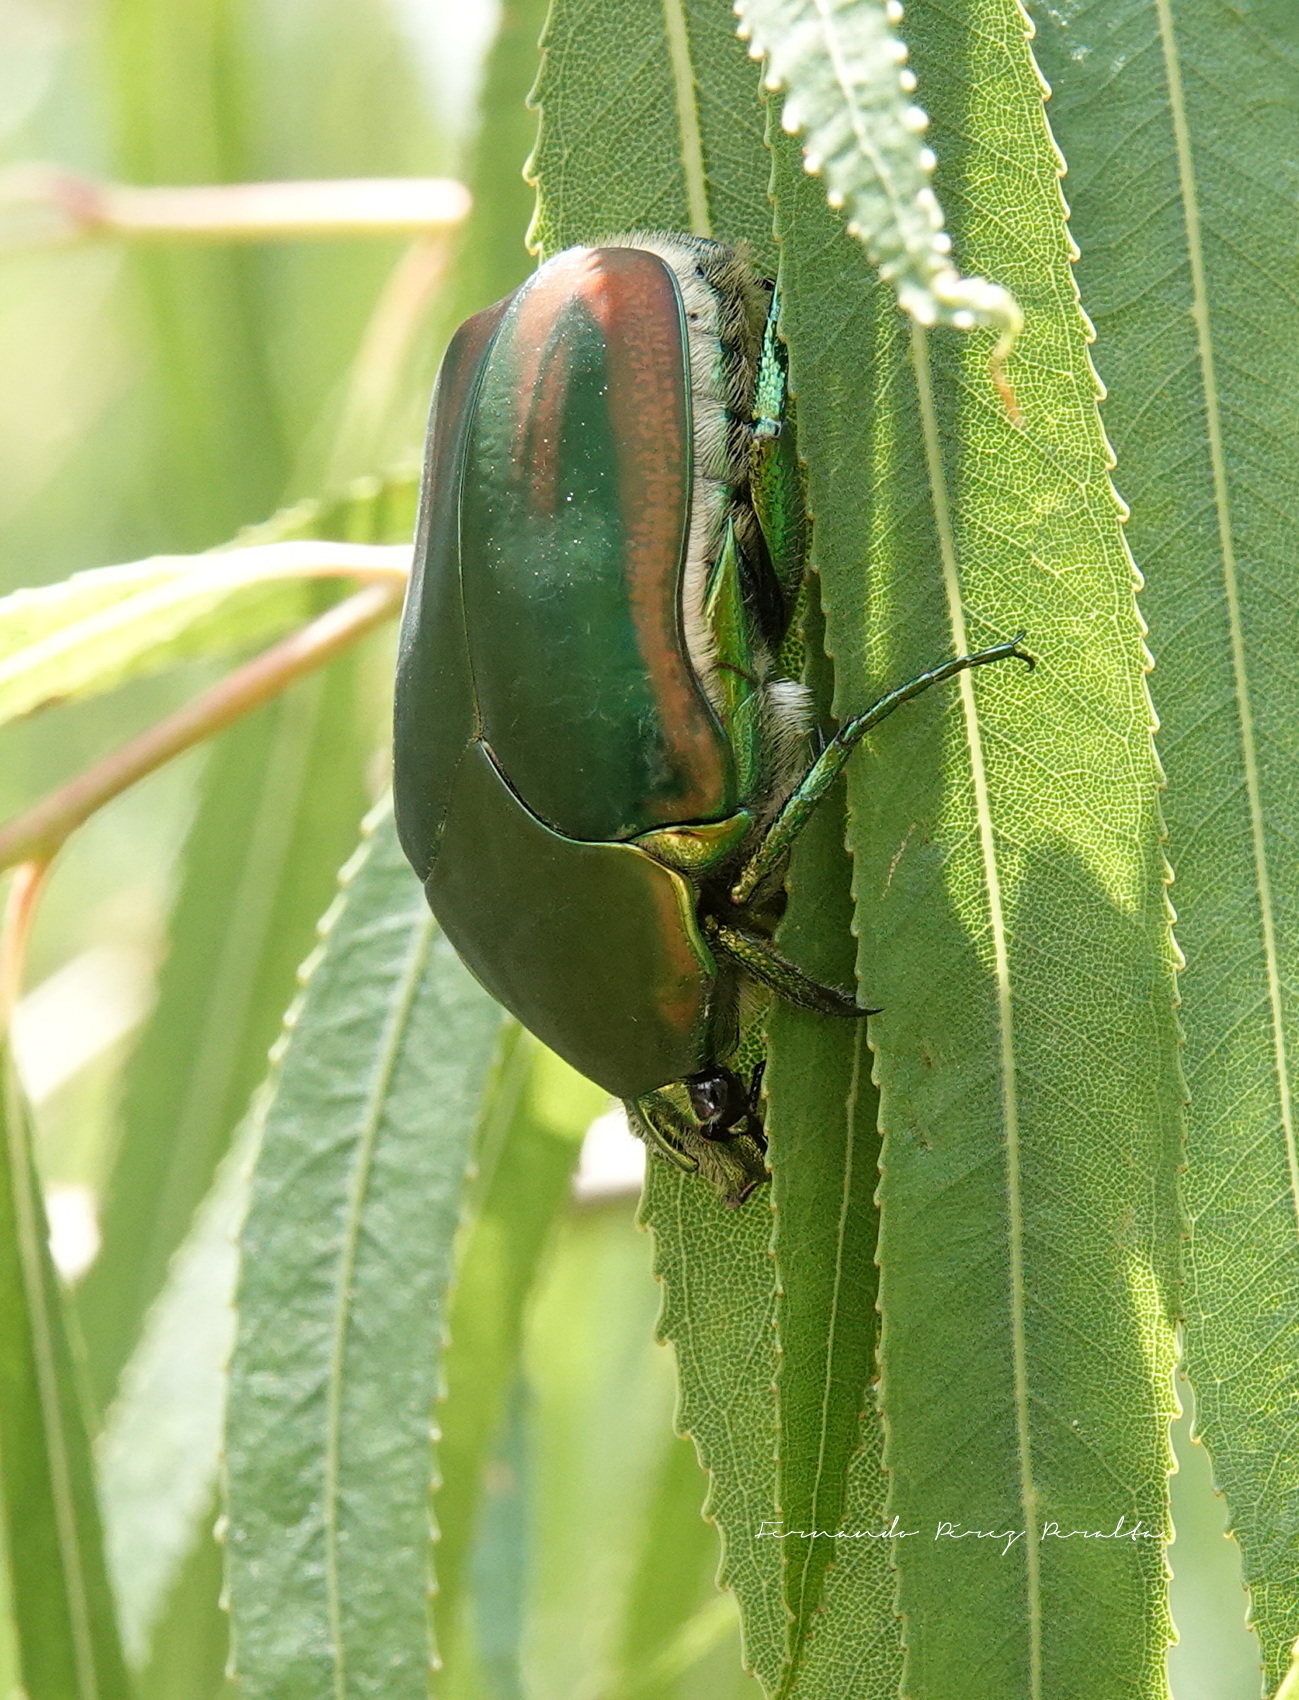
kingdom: Animalia
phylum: Arthropoda
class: Insecta
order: Coleoptera
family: Scarabaeidae
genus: Cotinis
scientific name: Cotinis mutabilis
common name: Figeater beetle
